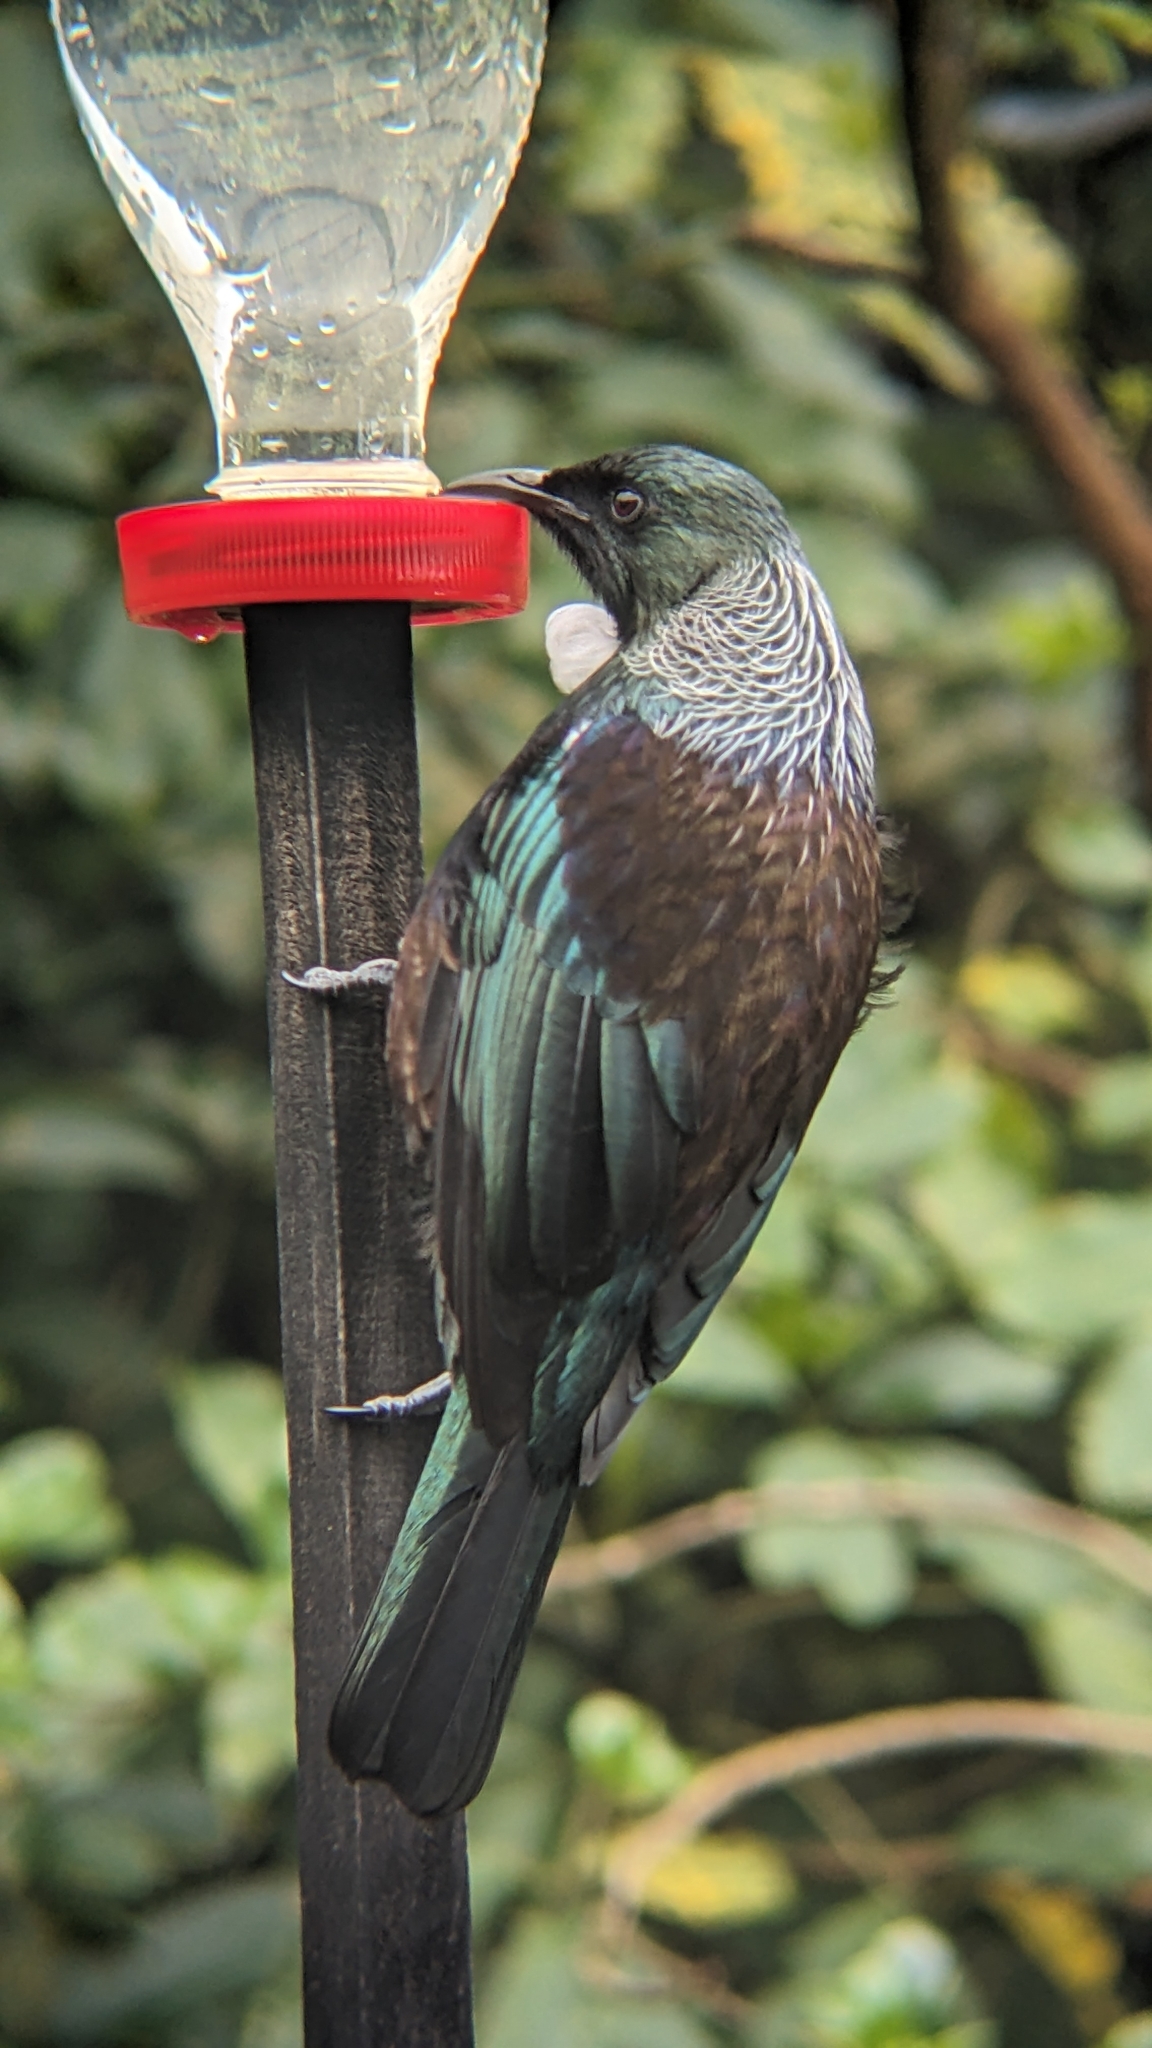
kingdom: Animalia
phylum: Chordata
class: Aves
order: Passeriformes
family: Meliphagidae
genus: Prosthemadera
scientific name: Prosthemadera novaeseelandiae
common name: Tui
